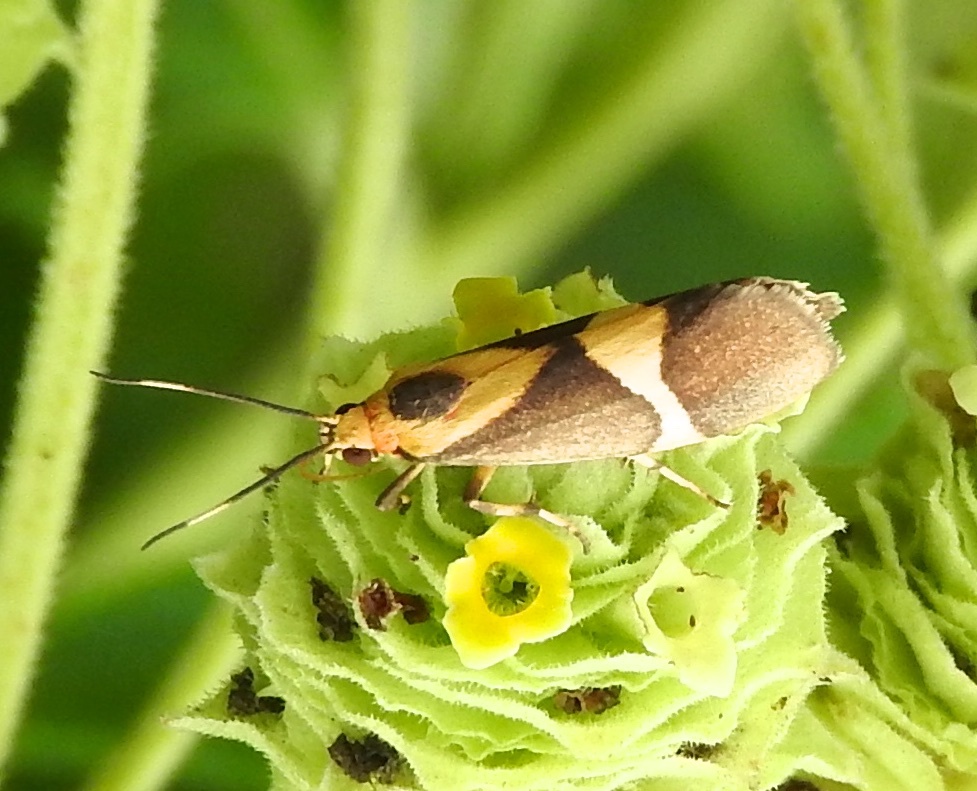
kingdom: Animalia
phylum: Arthropoda
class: Insecta
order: Lepidoptera
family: Erebidae
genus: Cisthene
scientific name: Cisthene
